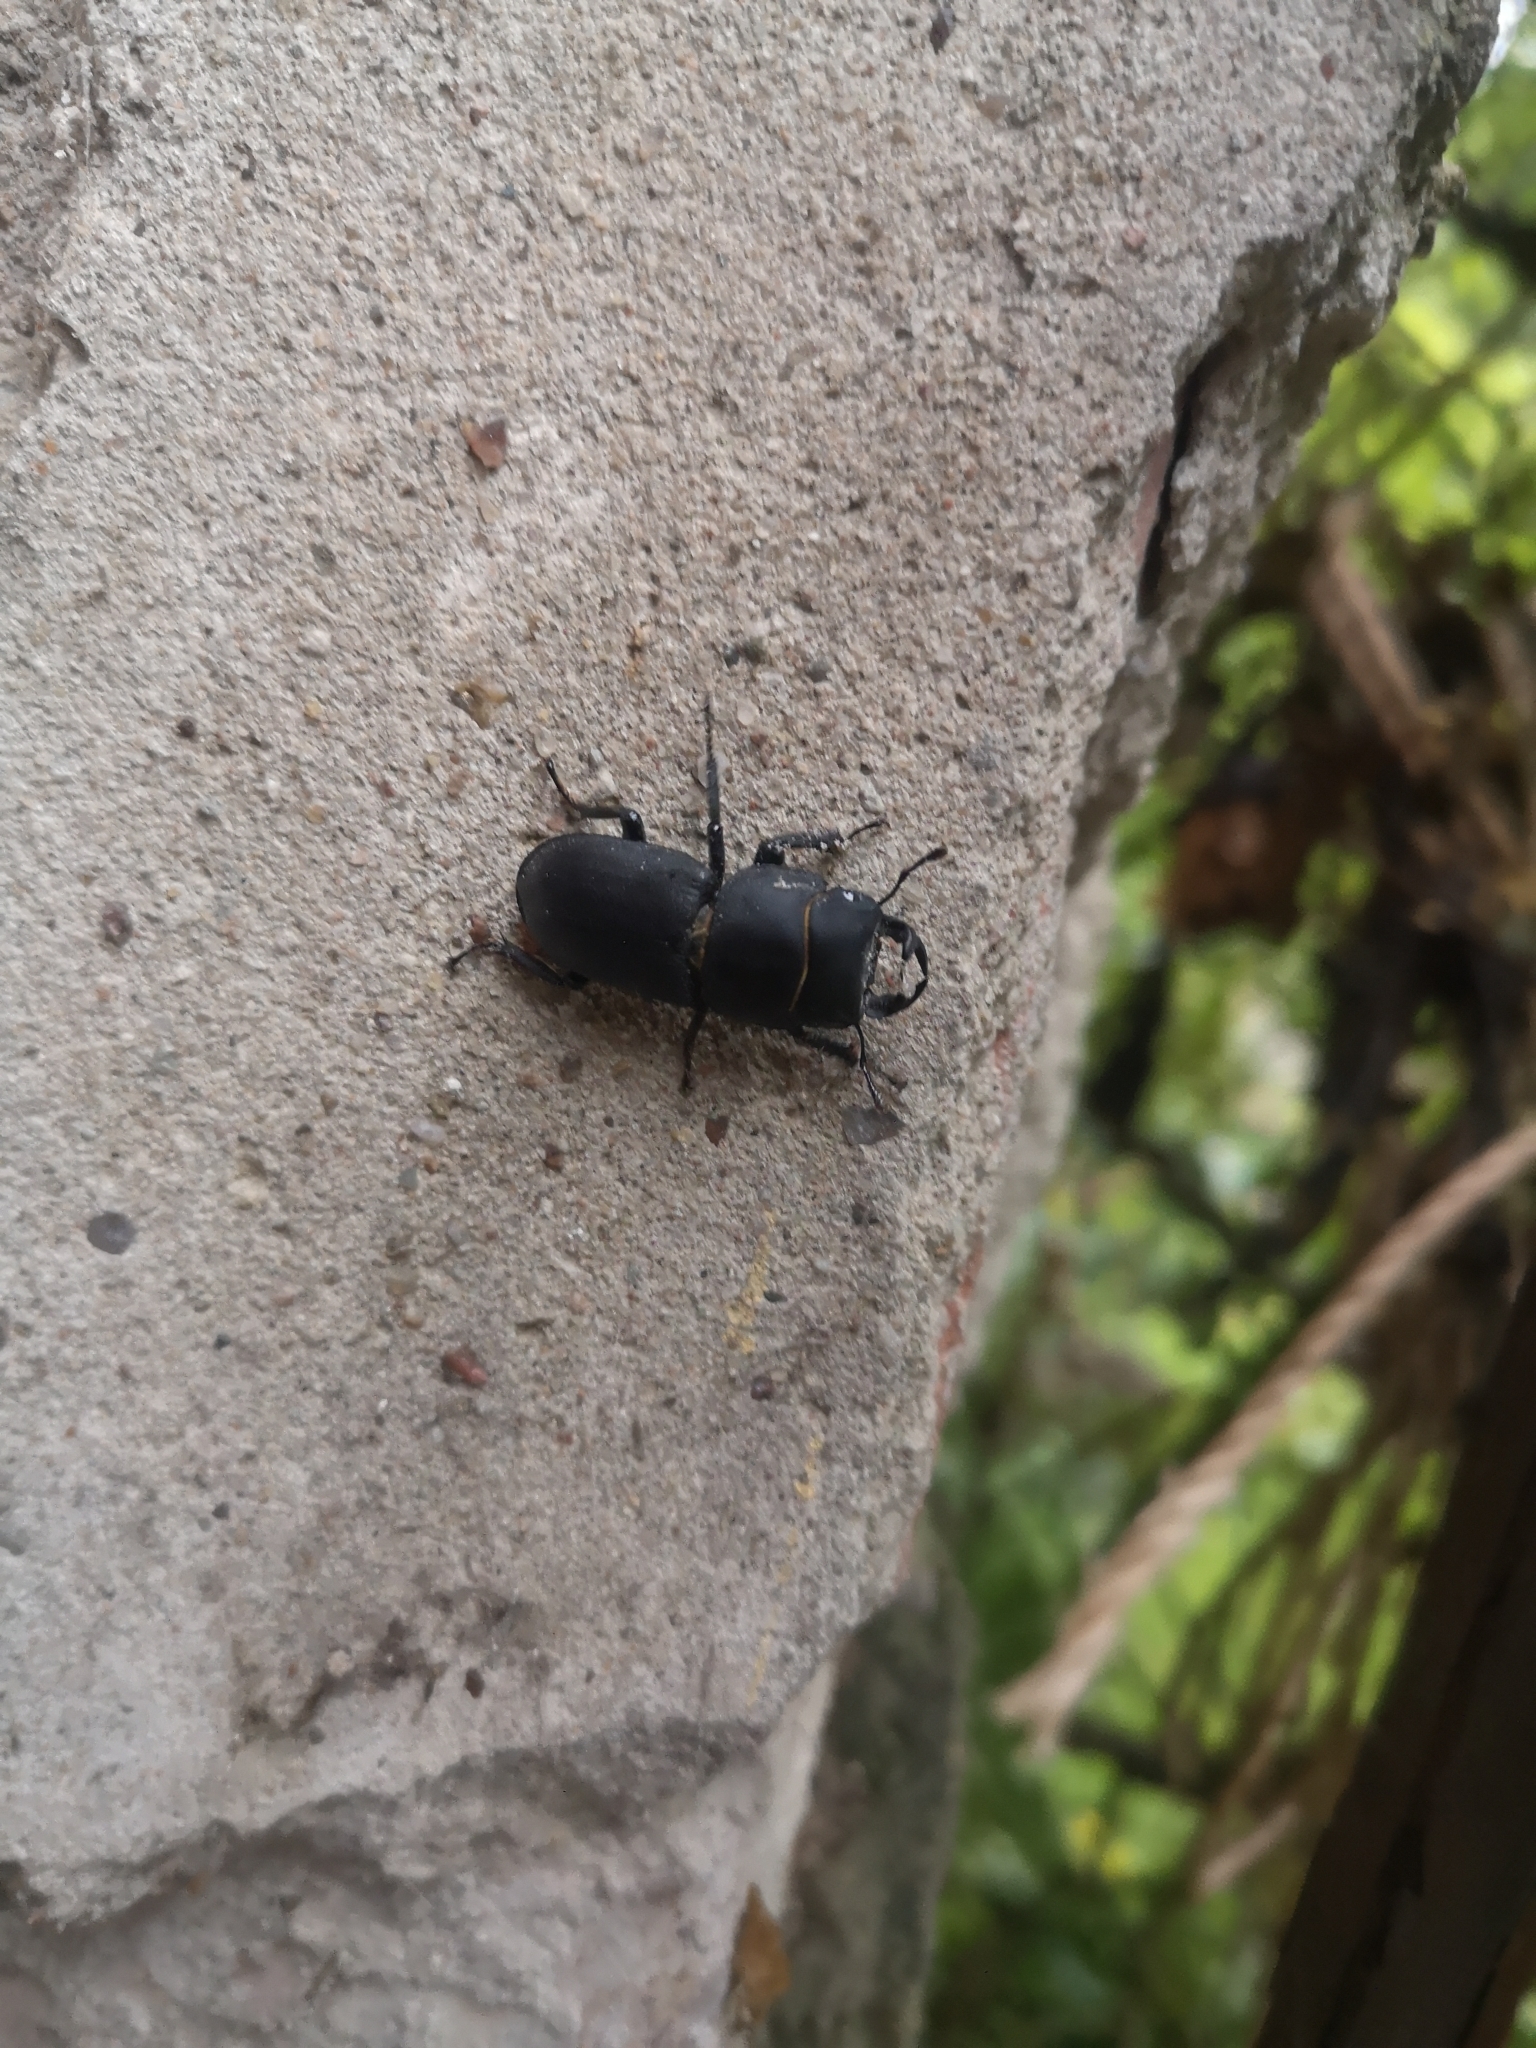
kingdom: Animalia
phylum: Arthropoda
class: Insecta
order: Coleoptera
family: Lucanidae
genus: Dorcus
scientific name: Dorcus parallelipipedus
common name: Lesser stag beetle
